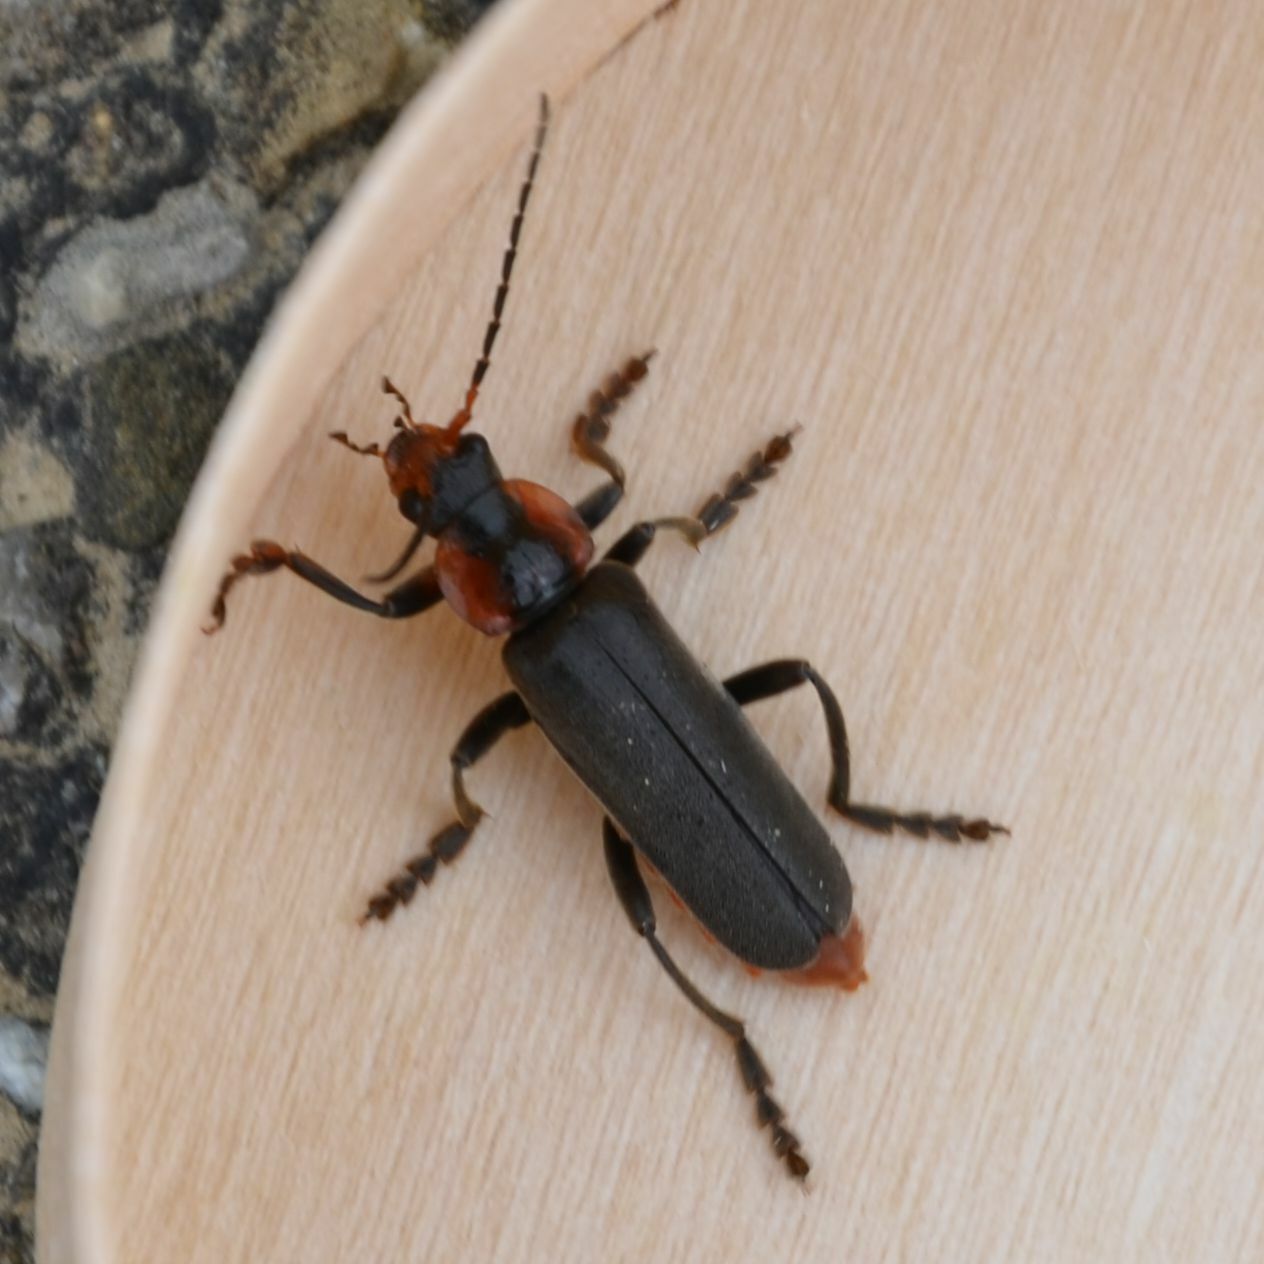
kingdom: Animalia
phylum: Arthropoda
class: Insecta
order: Coleoptera
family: Cantharidae
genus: Cantharis
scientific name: Cantharis fusca
